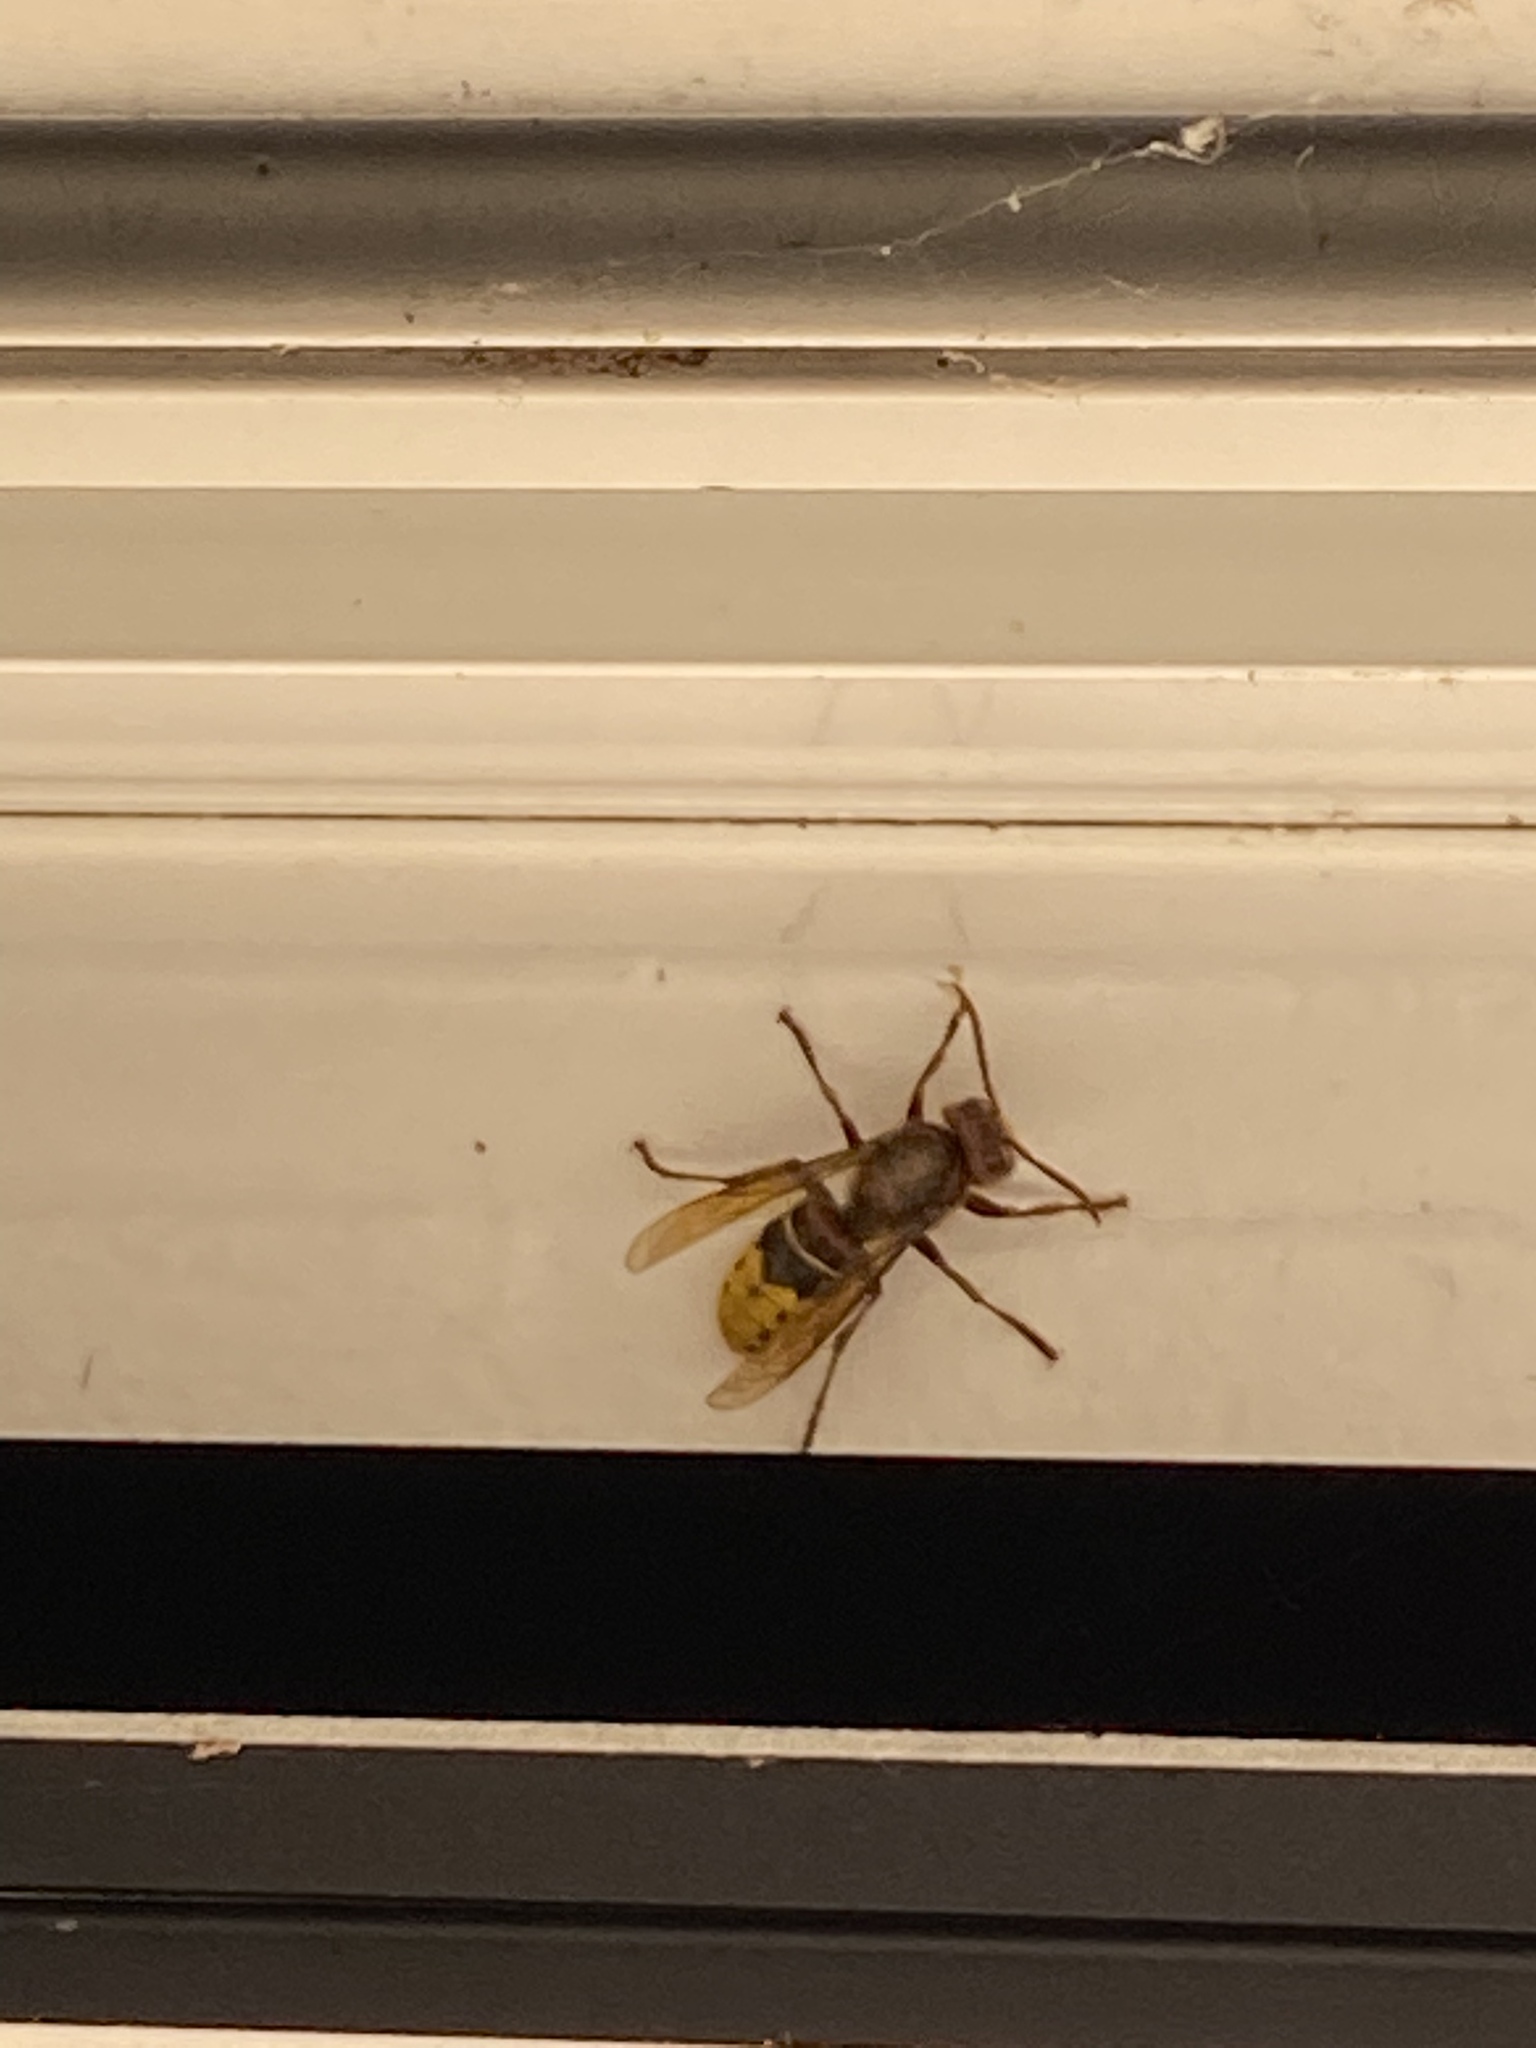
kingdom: Animalia
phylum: Arthropoda
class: Insecta
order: Hymenoptera
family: Vespidae
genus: Vespa
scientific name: Vespa crabro
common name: Hornet
